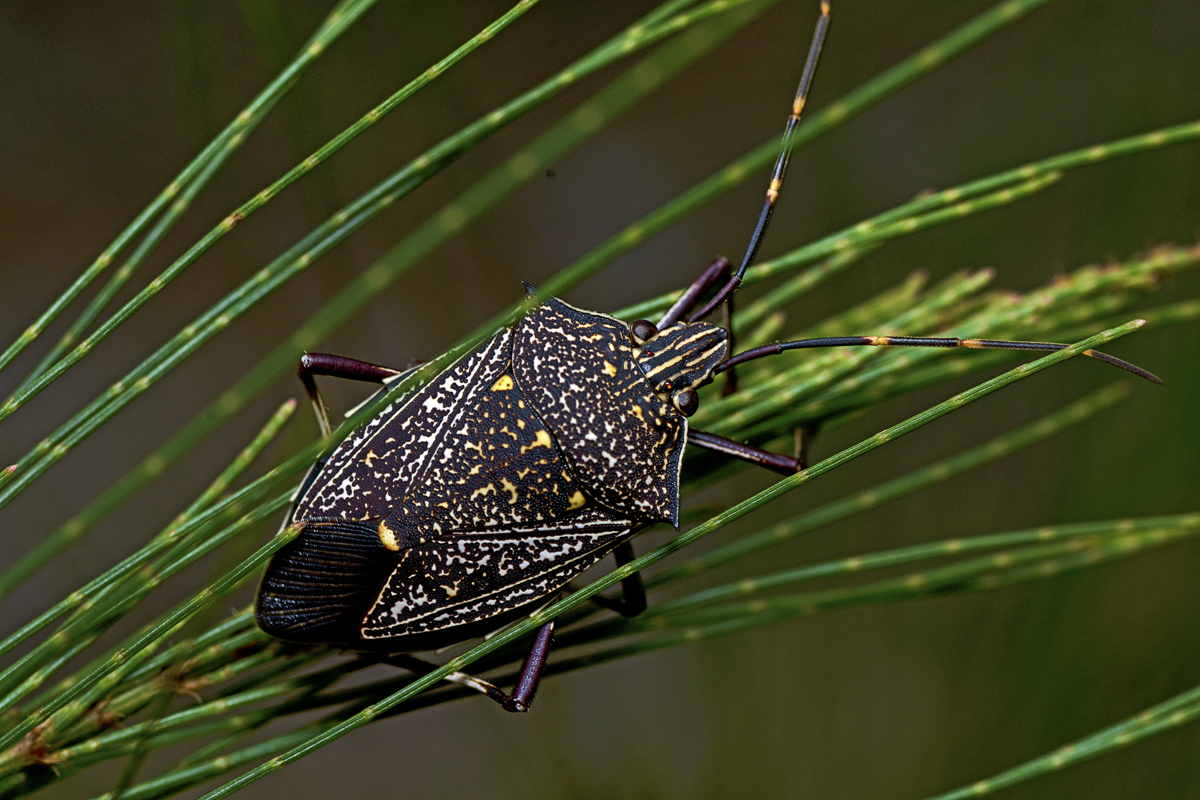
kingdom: Animalia
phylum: Arthropoda
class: Insecta
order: Hemiptera
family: Pentatomidae
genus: Poecilometis
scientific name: Poecilometis
